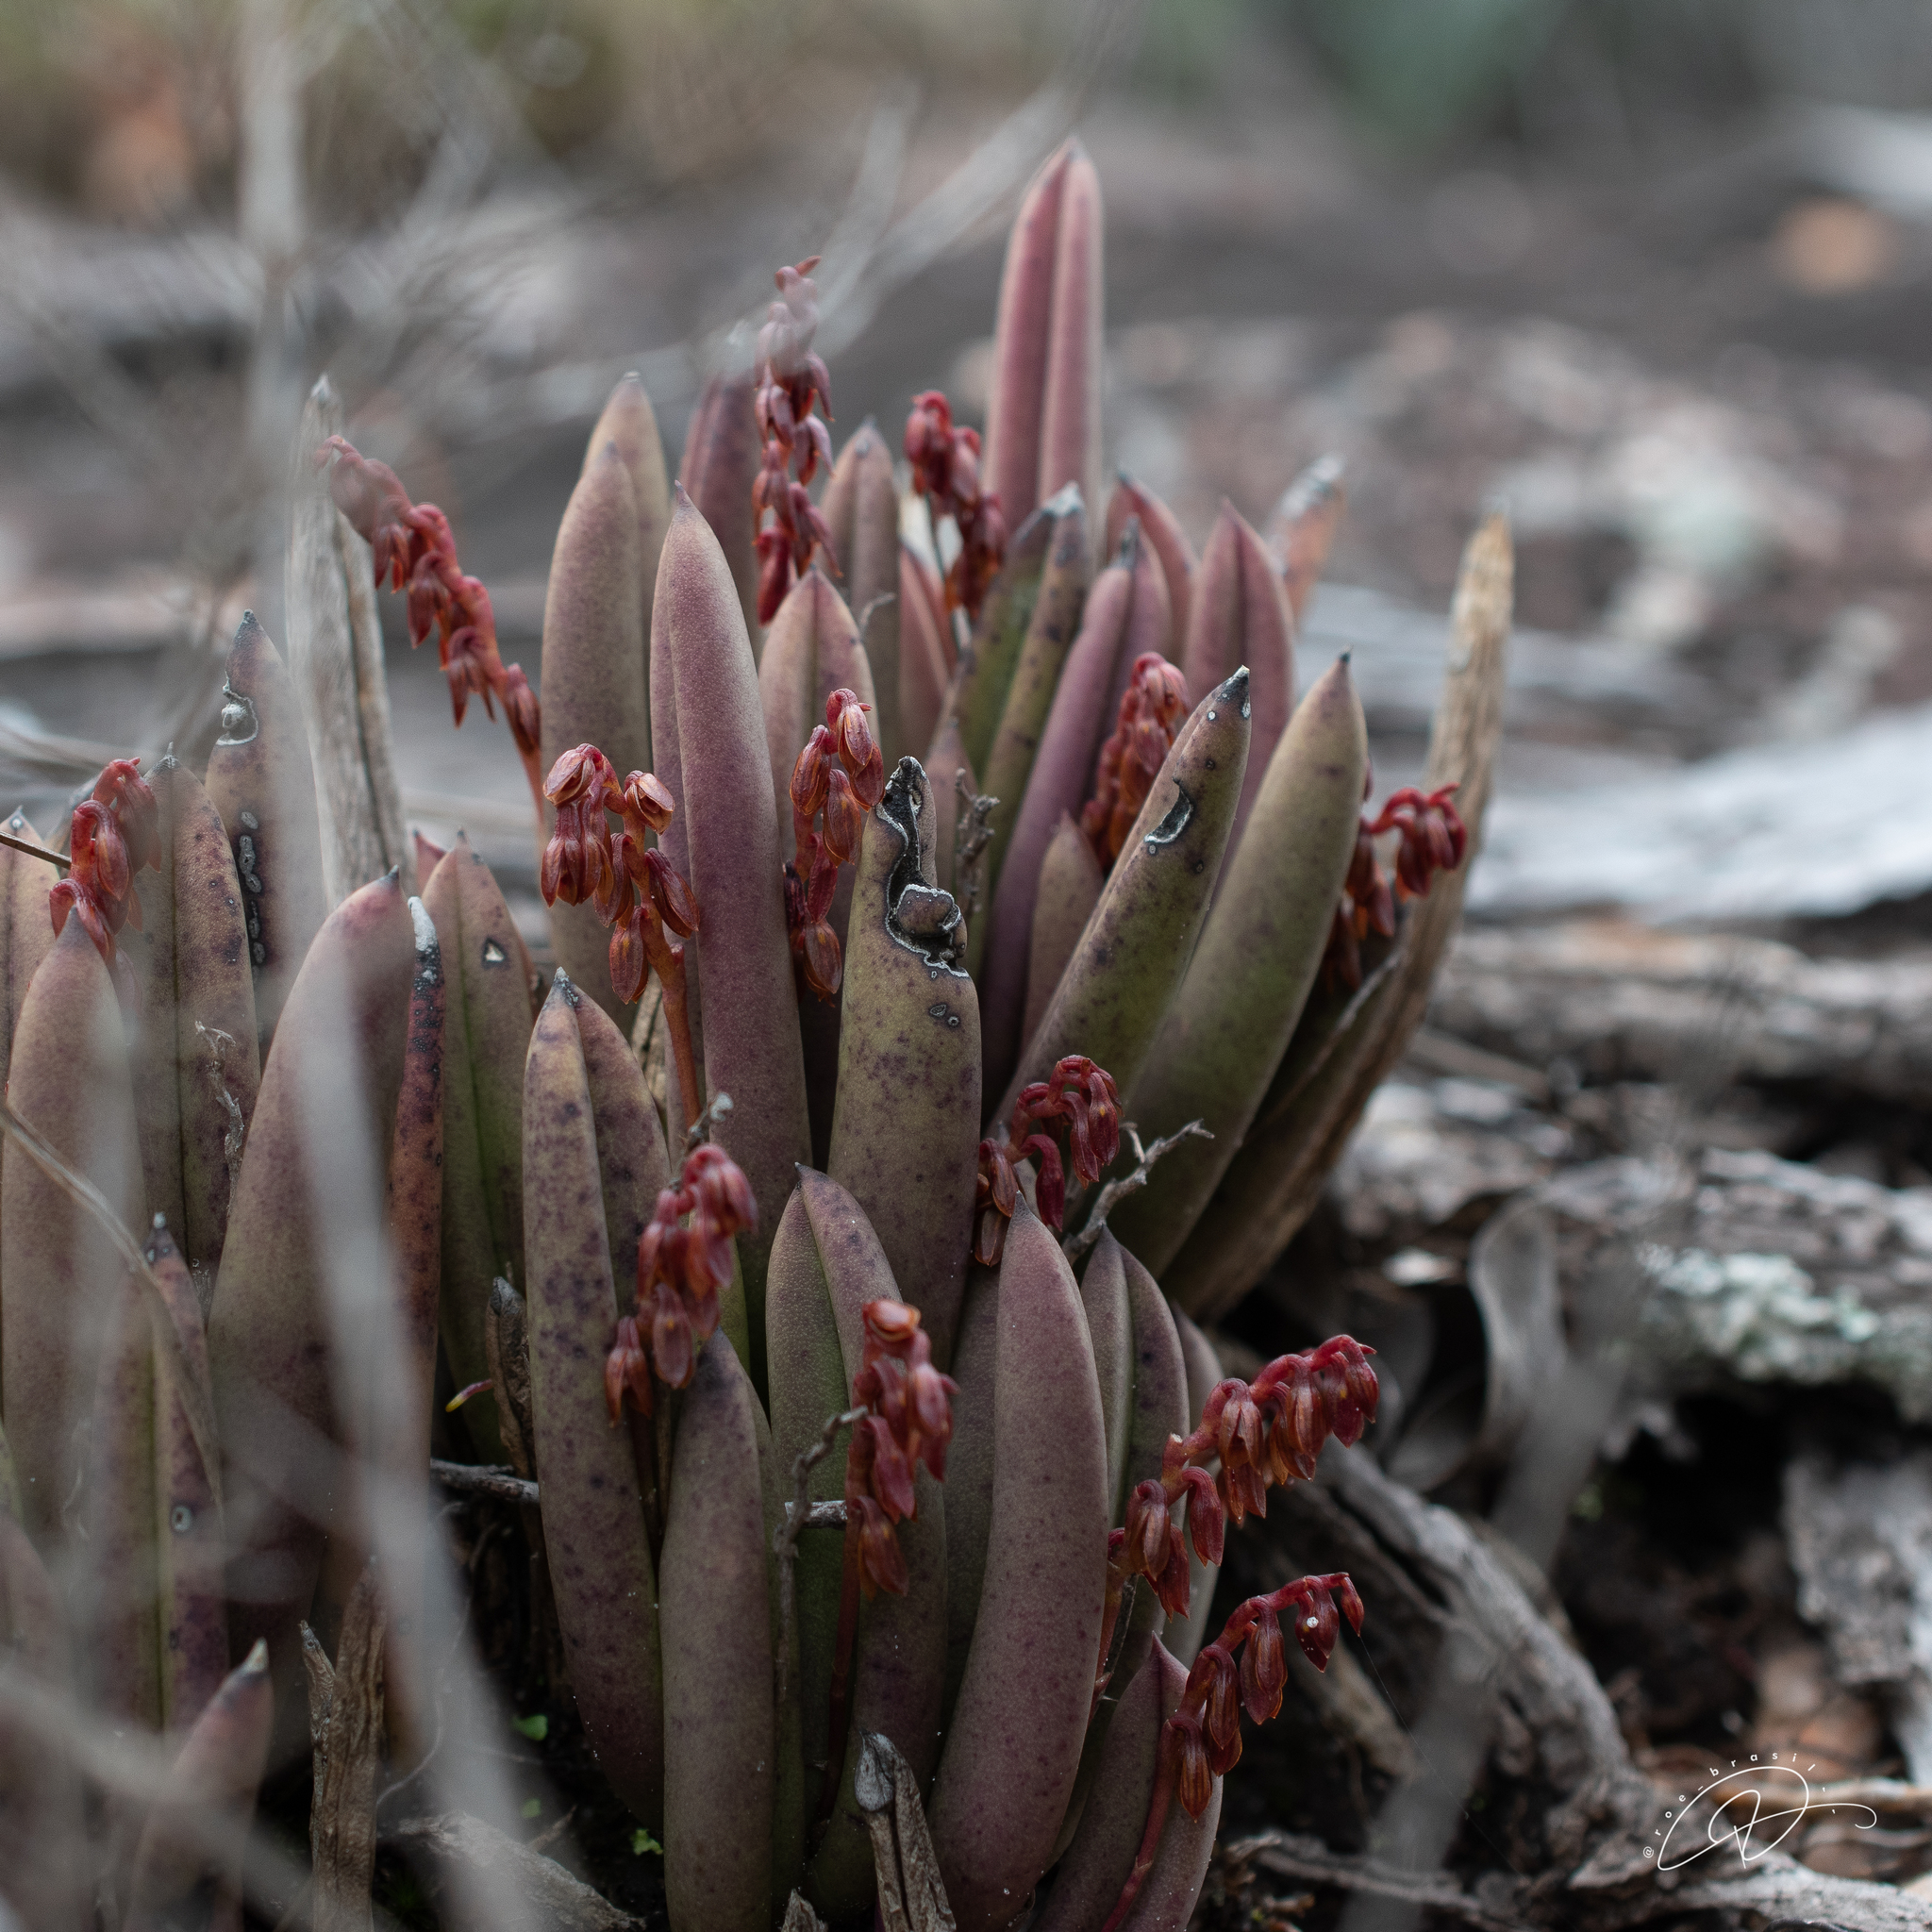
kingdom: Plantae
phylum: Tracheophyta
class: Liliopsida
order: Asparagales
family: Orchidaceae
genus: Acianthera
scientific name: Acianthera teres
